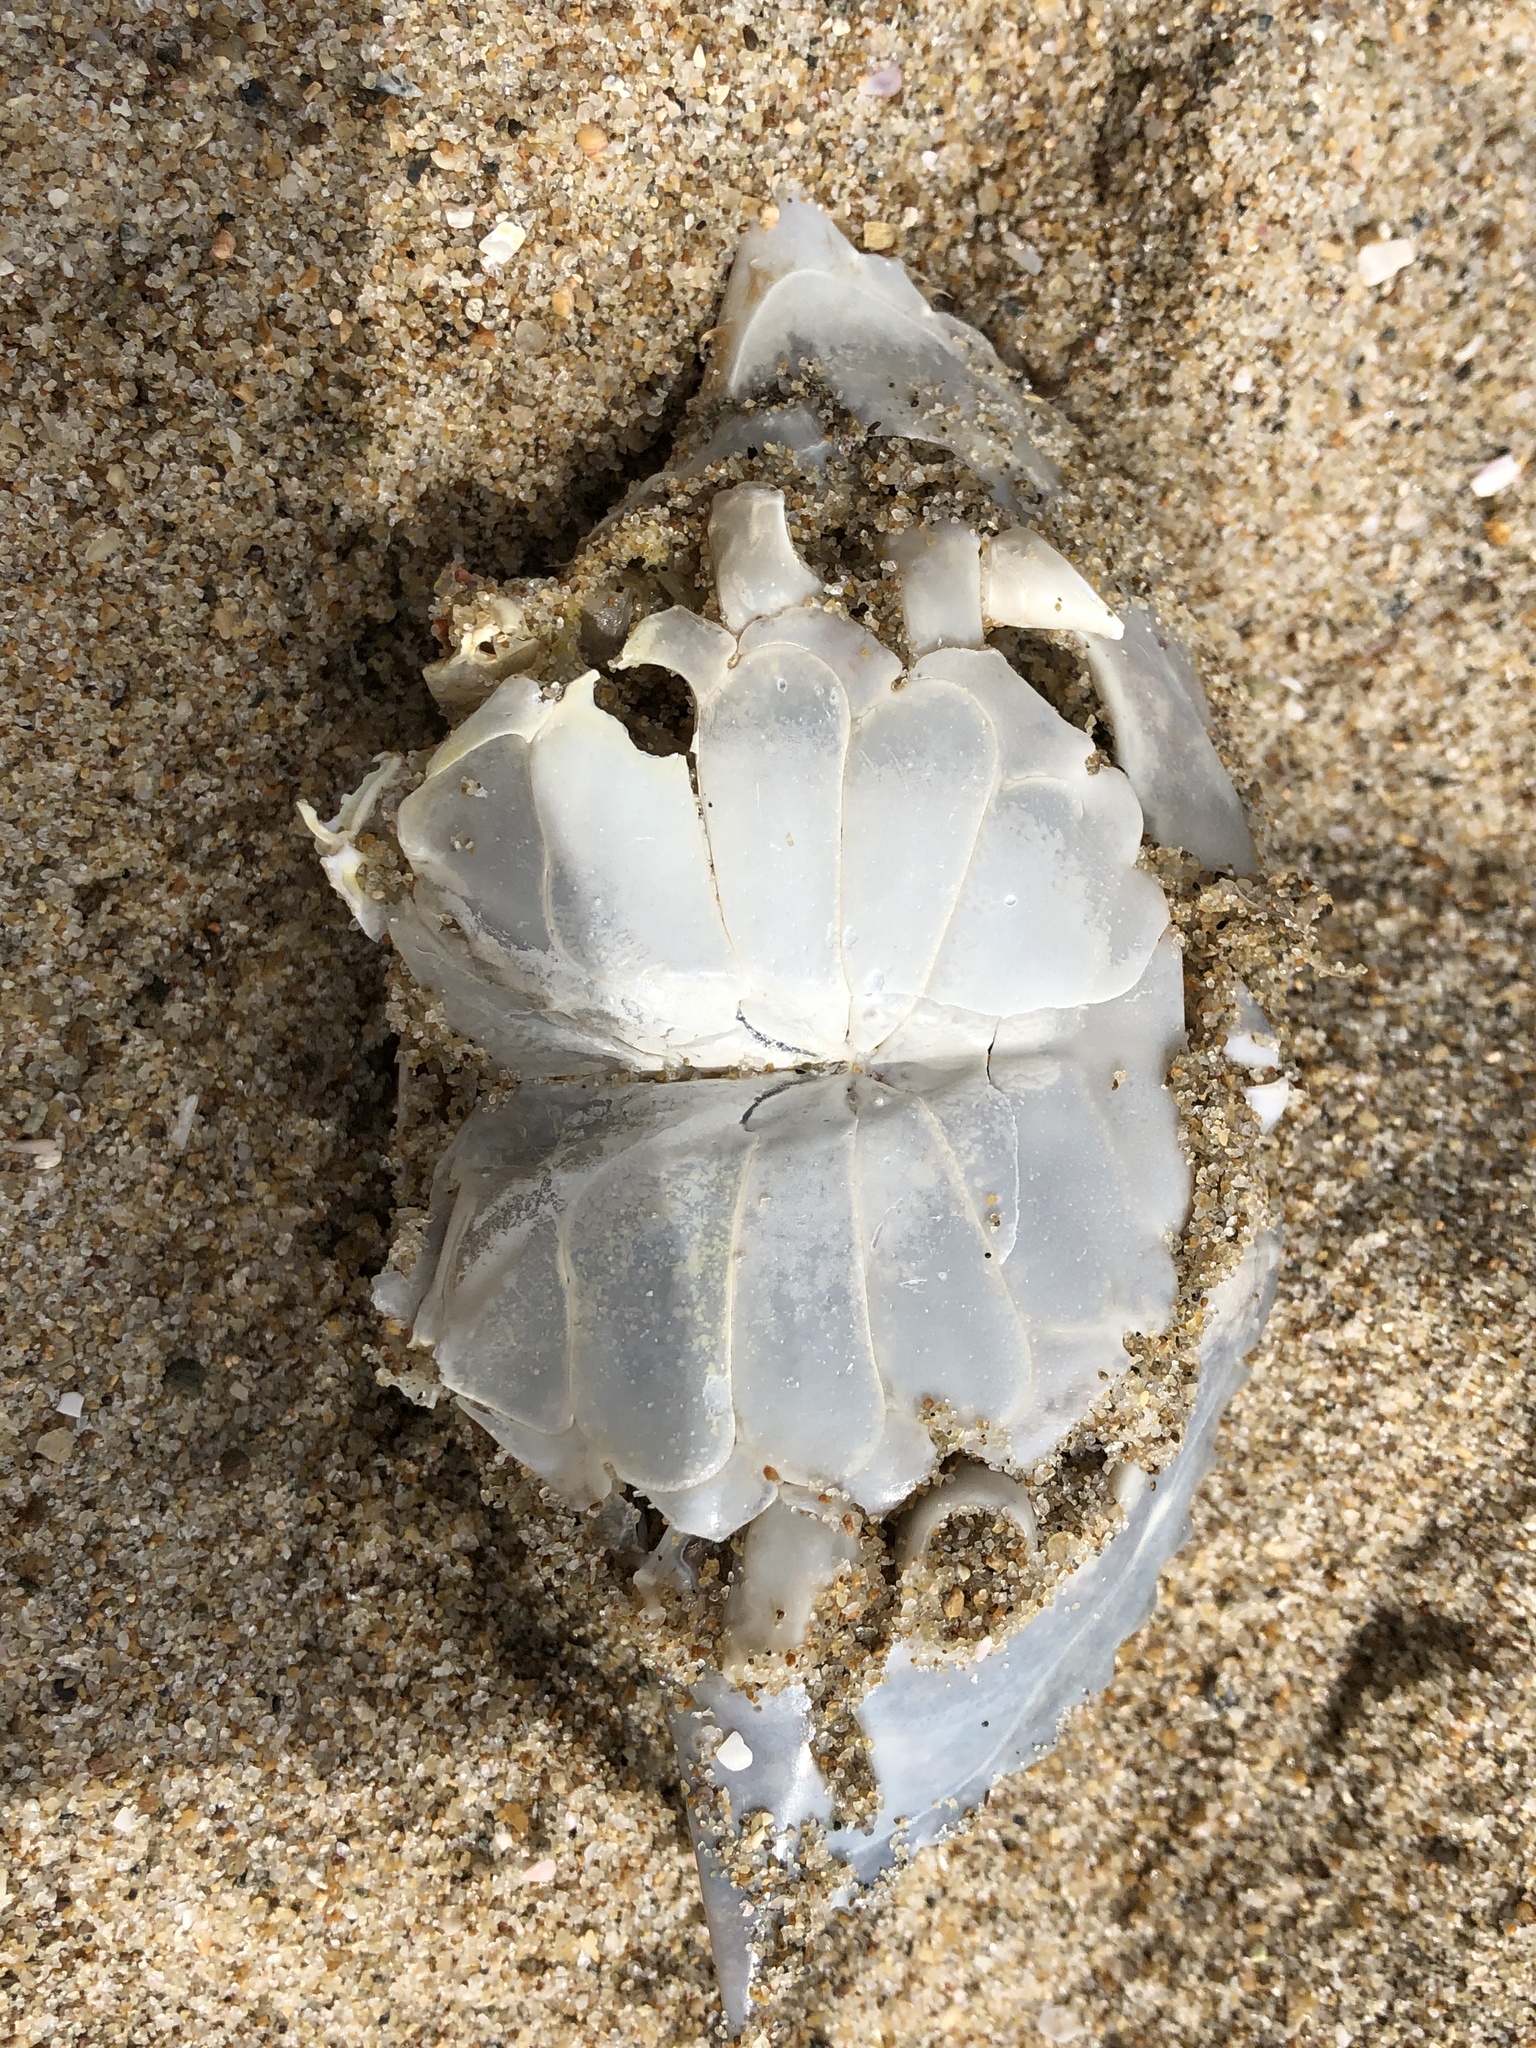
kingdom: Animalia
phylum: Arthropoda
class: Malacostraca
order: Decapoda
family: Portunidae
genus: Portunus
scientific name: Portunus sanguinolentus
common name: Blood-spotted swimming crab
